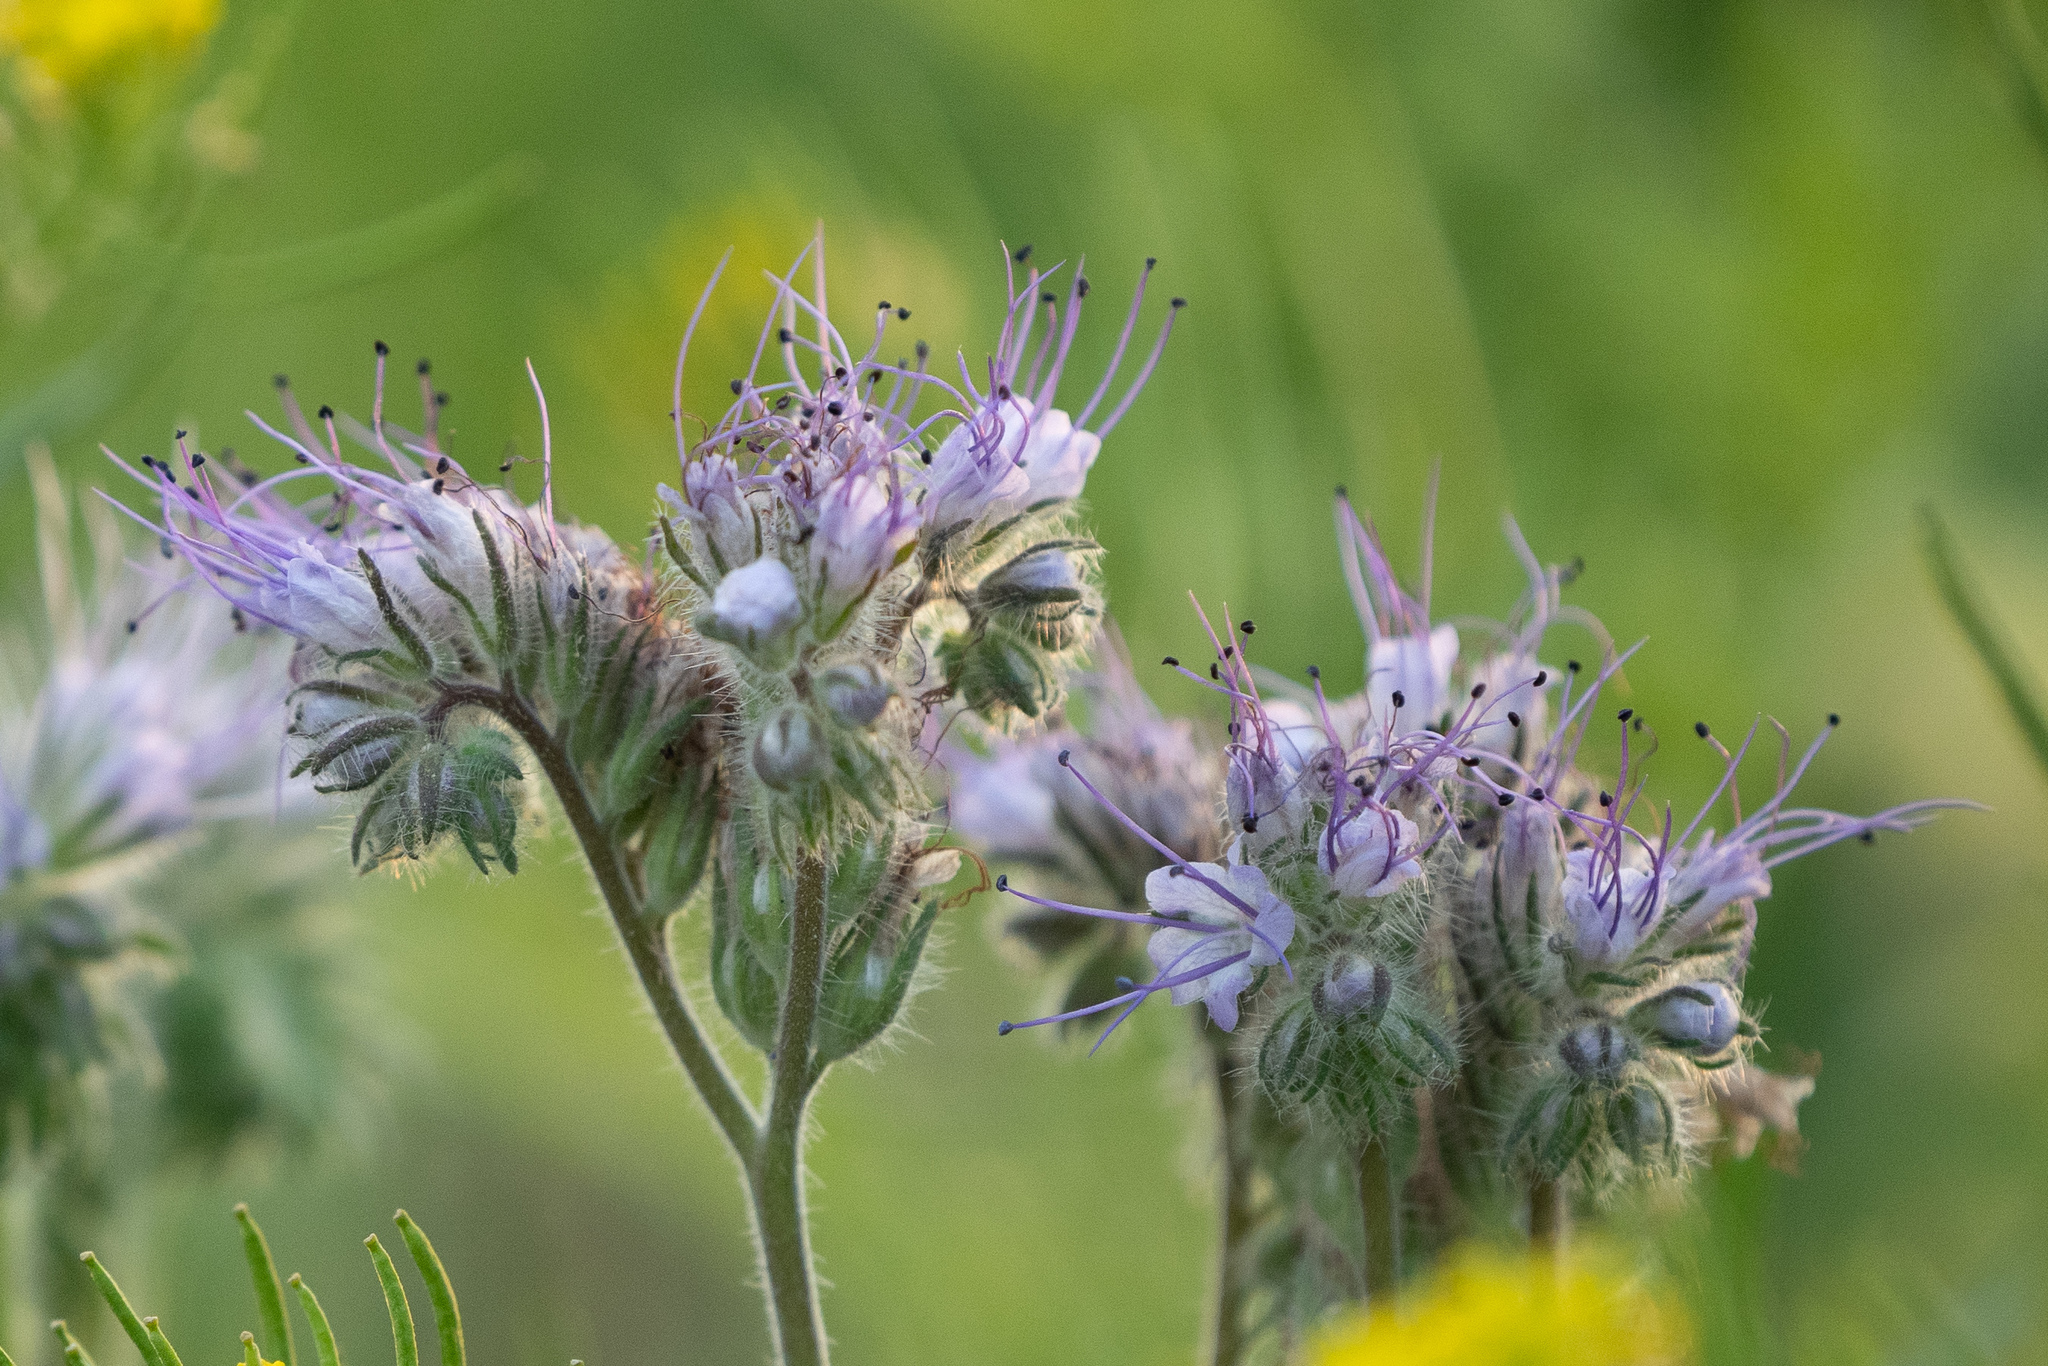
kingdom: Plantae
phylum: Tracheophyta
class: Magnoliopsida
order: Boraginales
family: Hydrophyllaceae
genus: Phacelia
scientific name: Phacelia tanacetifolia
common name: Phacelia
